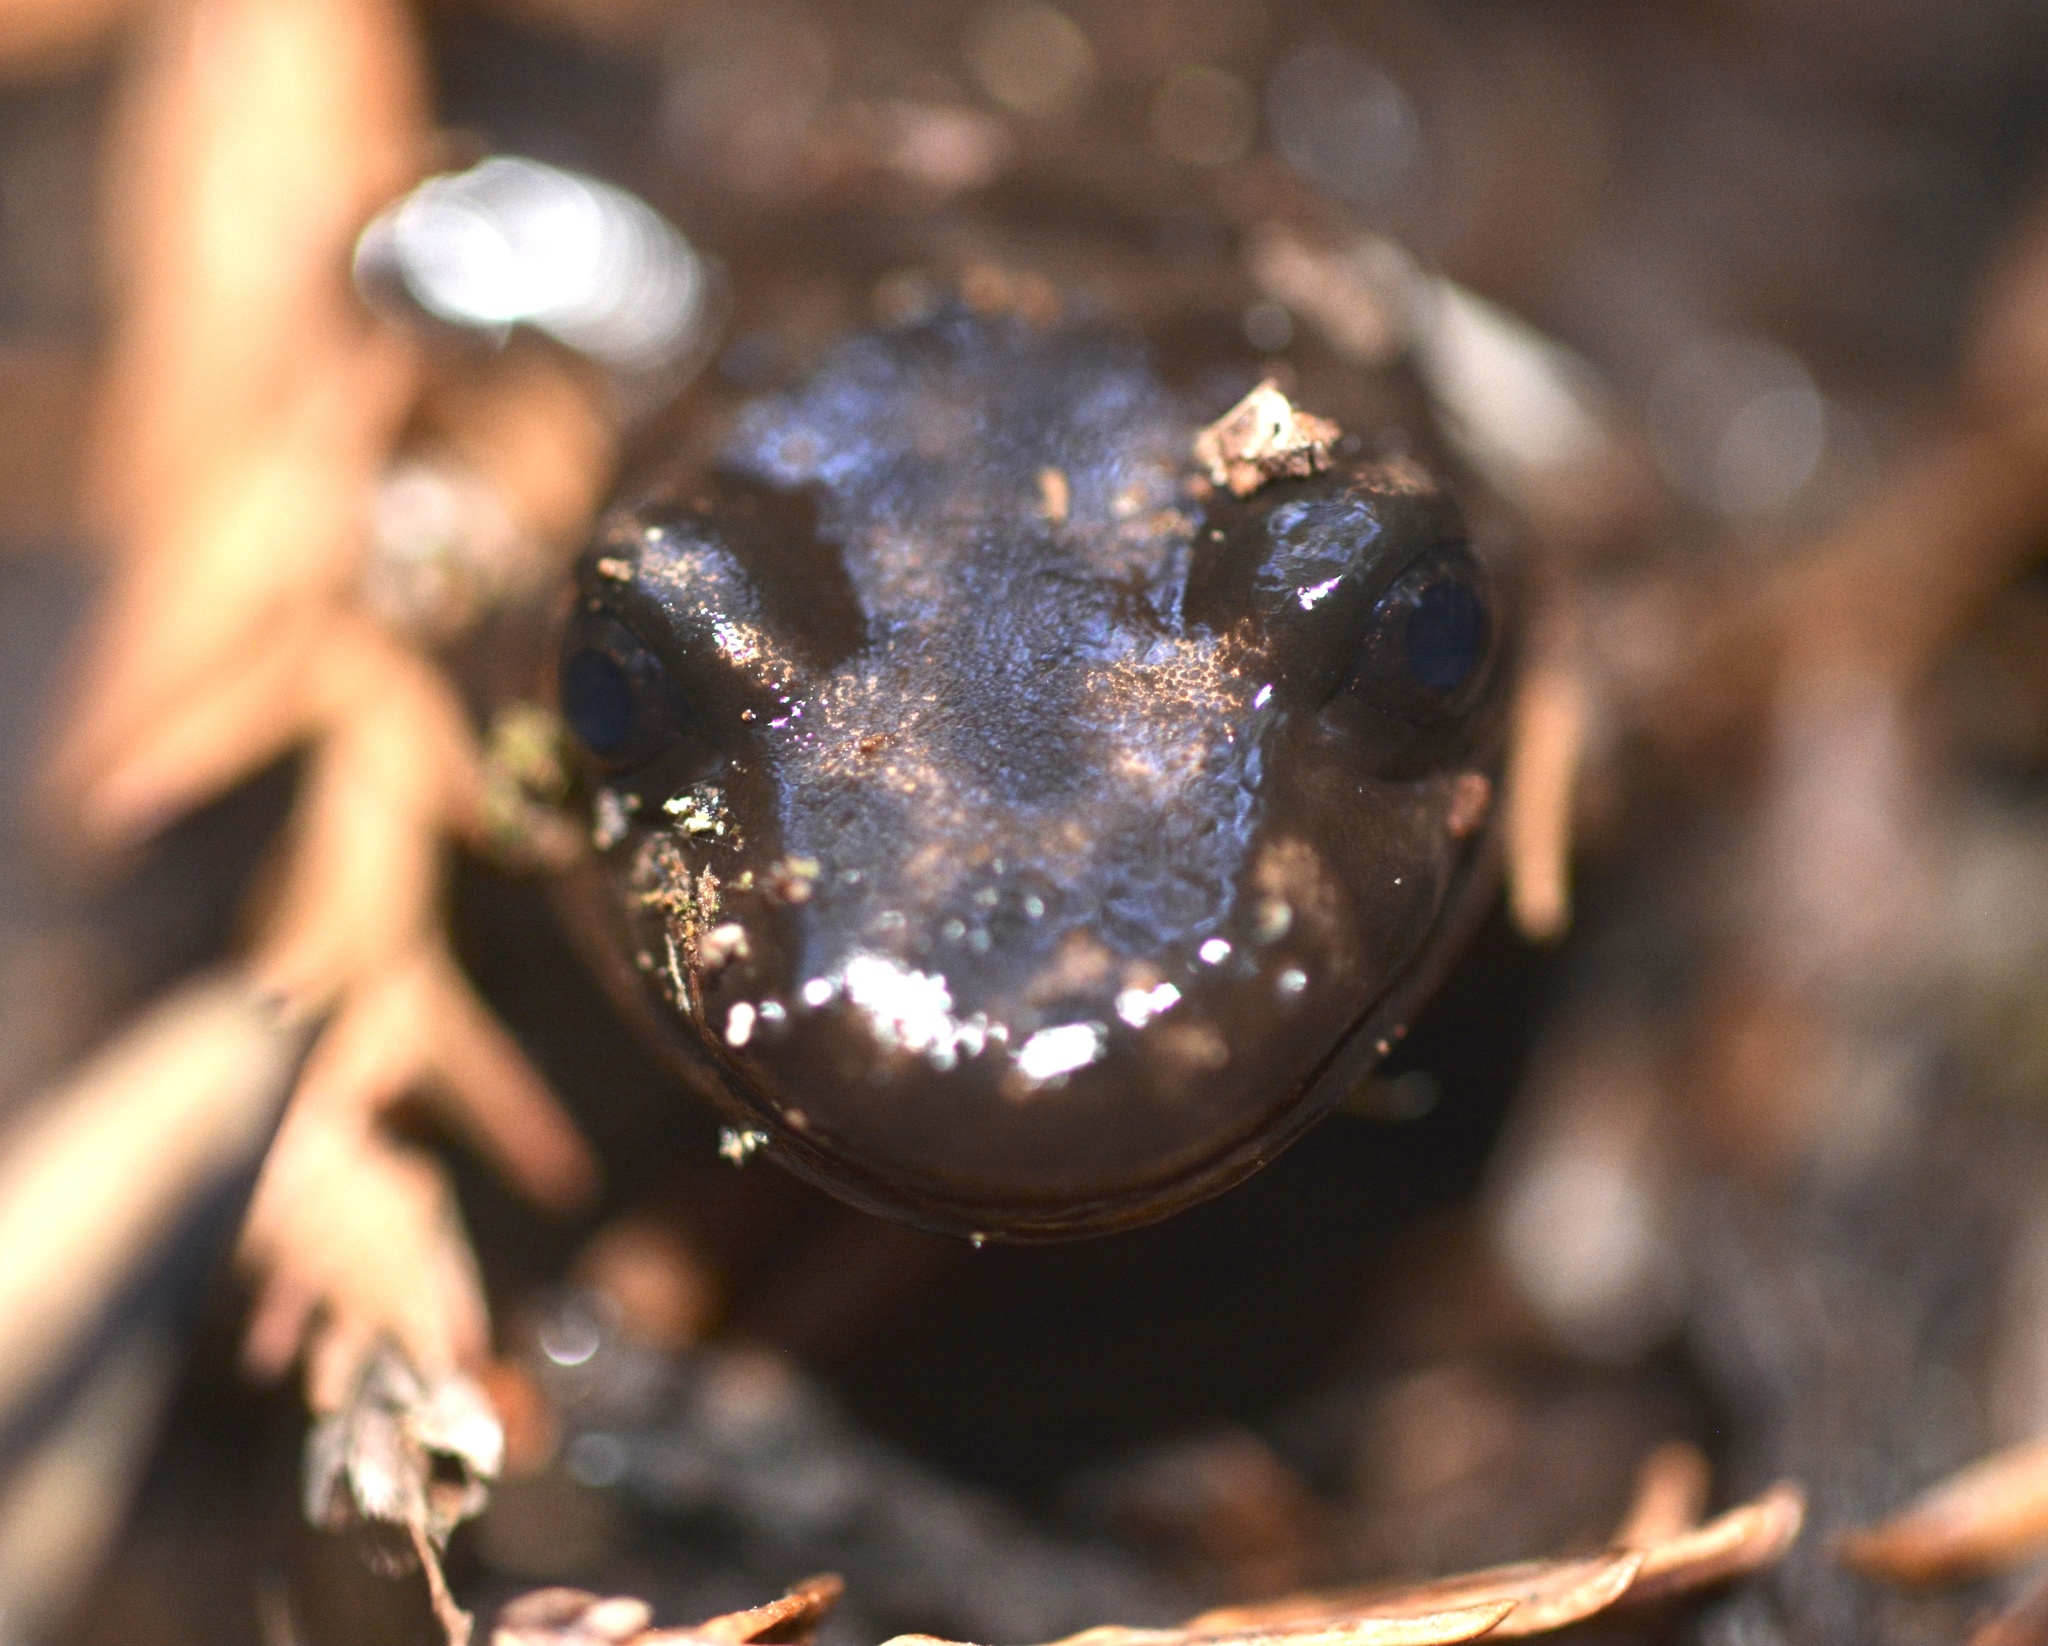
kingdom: Animalia
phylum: Chordata
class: Amphibia
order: Caudata
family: Ambystomatidae
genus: Dicamptodon
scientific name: Dicamptodon ensatus
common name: California giant salamander
